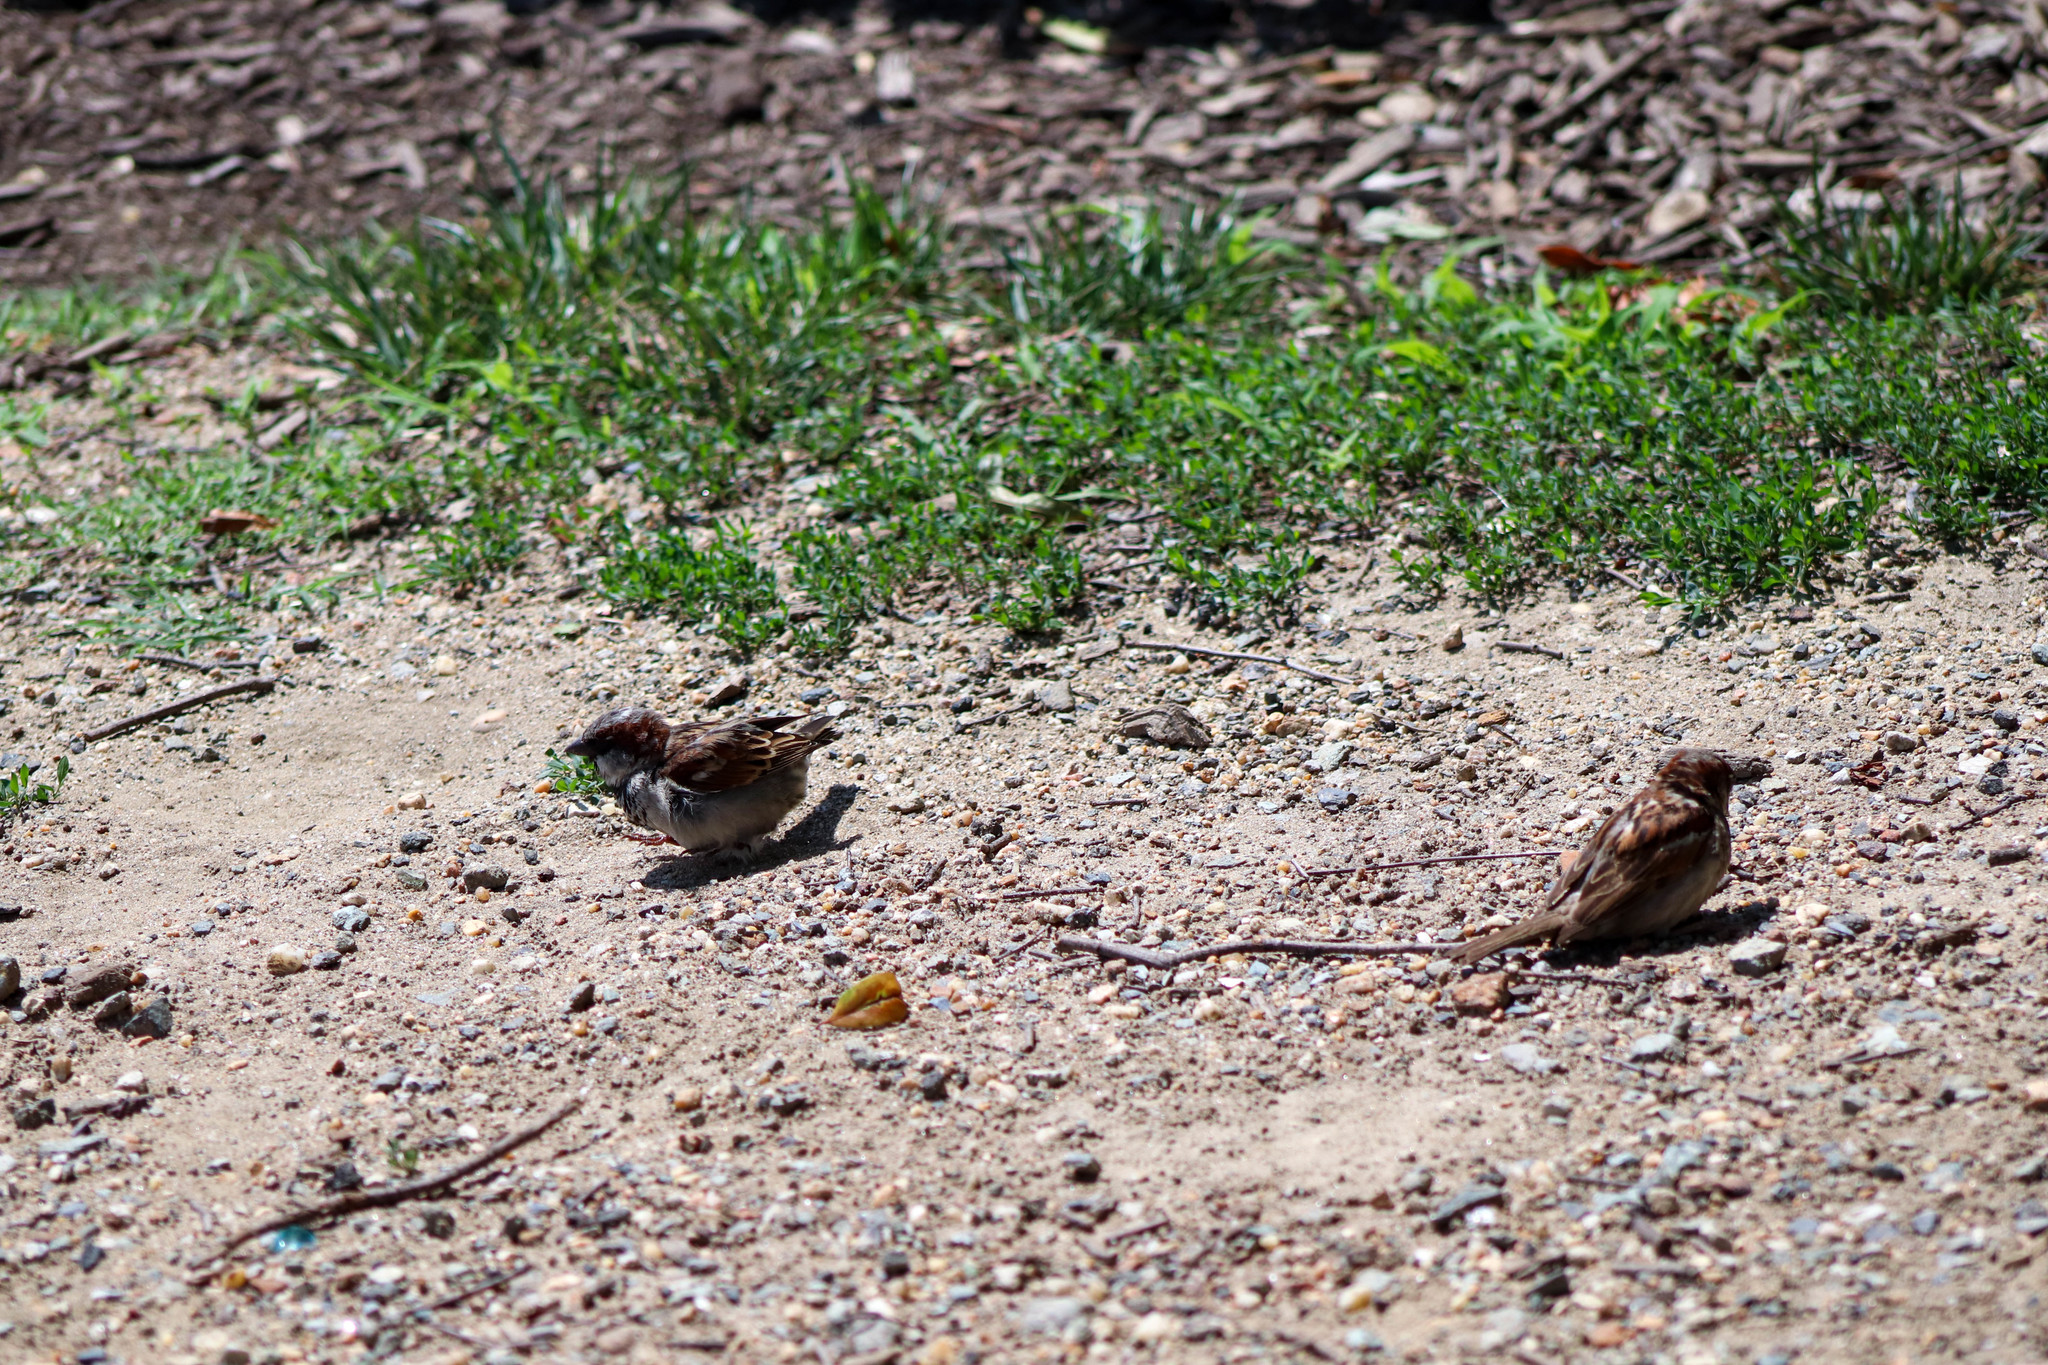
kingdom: Animalia
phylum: Chordata
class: Aves
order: Passeriformes
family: Passeridae
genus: Passer
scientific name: Passer domesticus
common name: House sparrow
